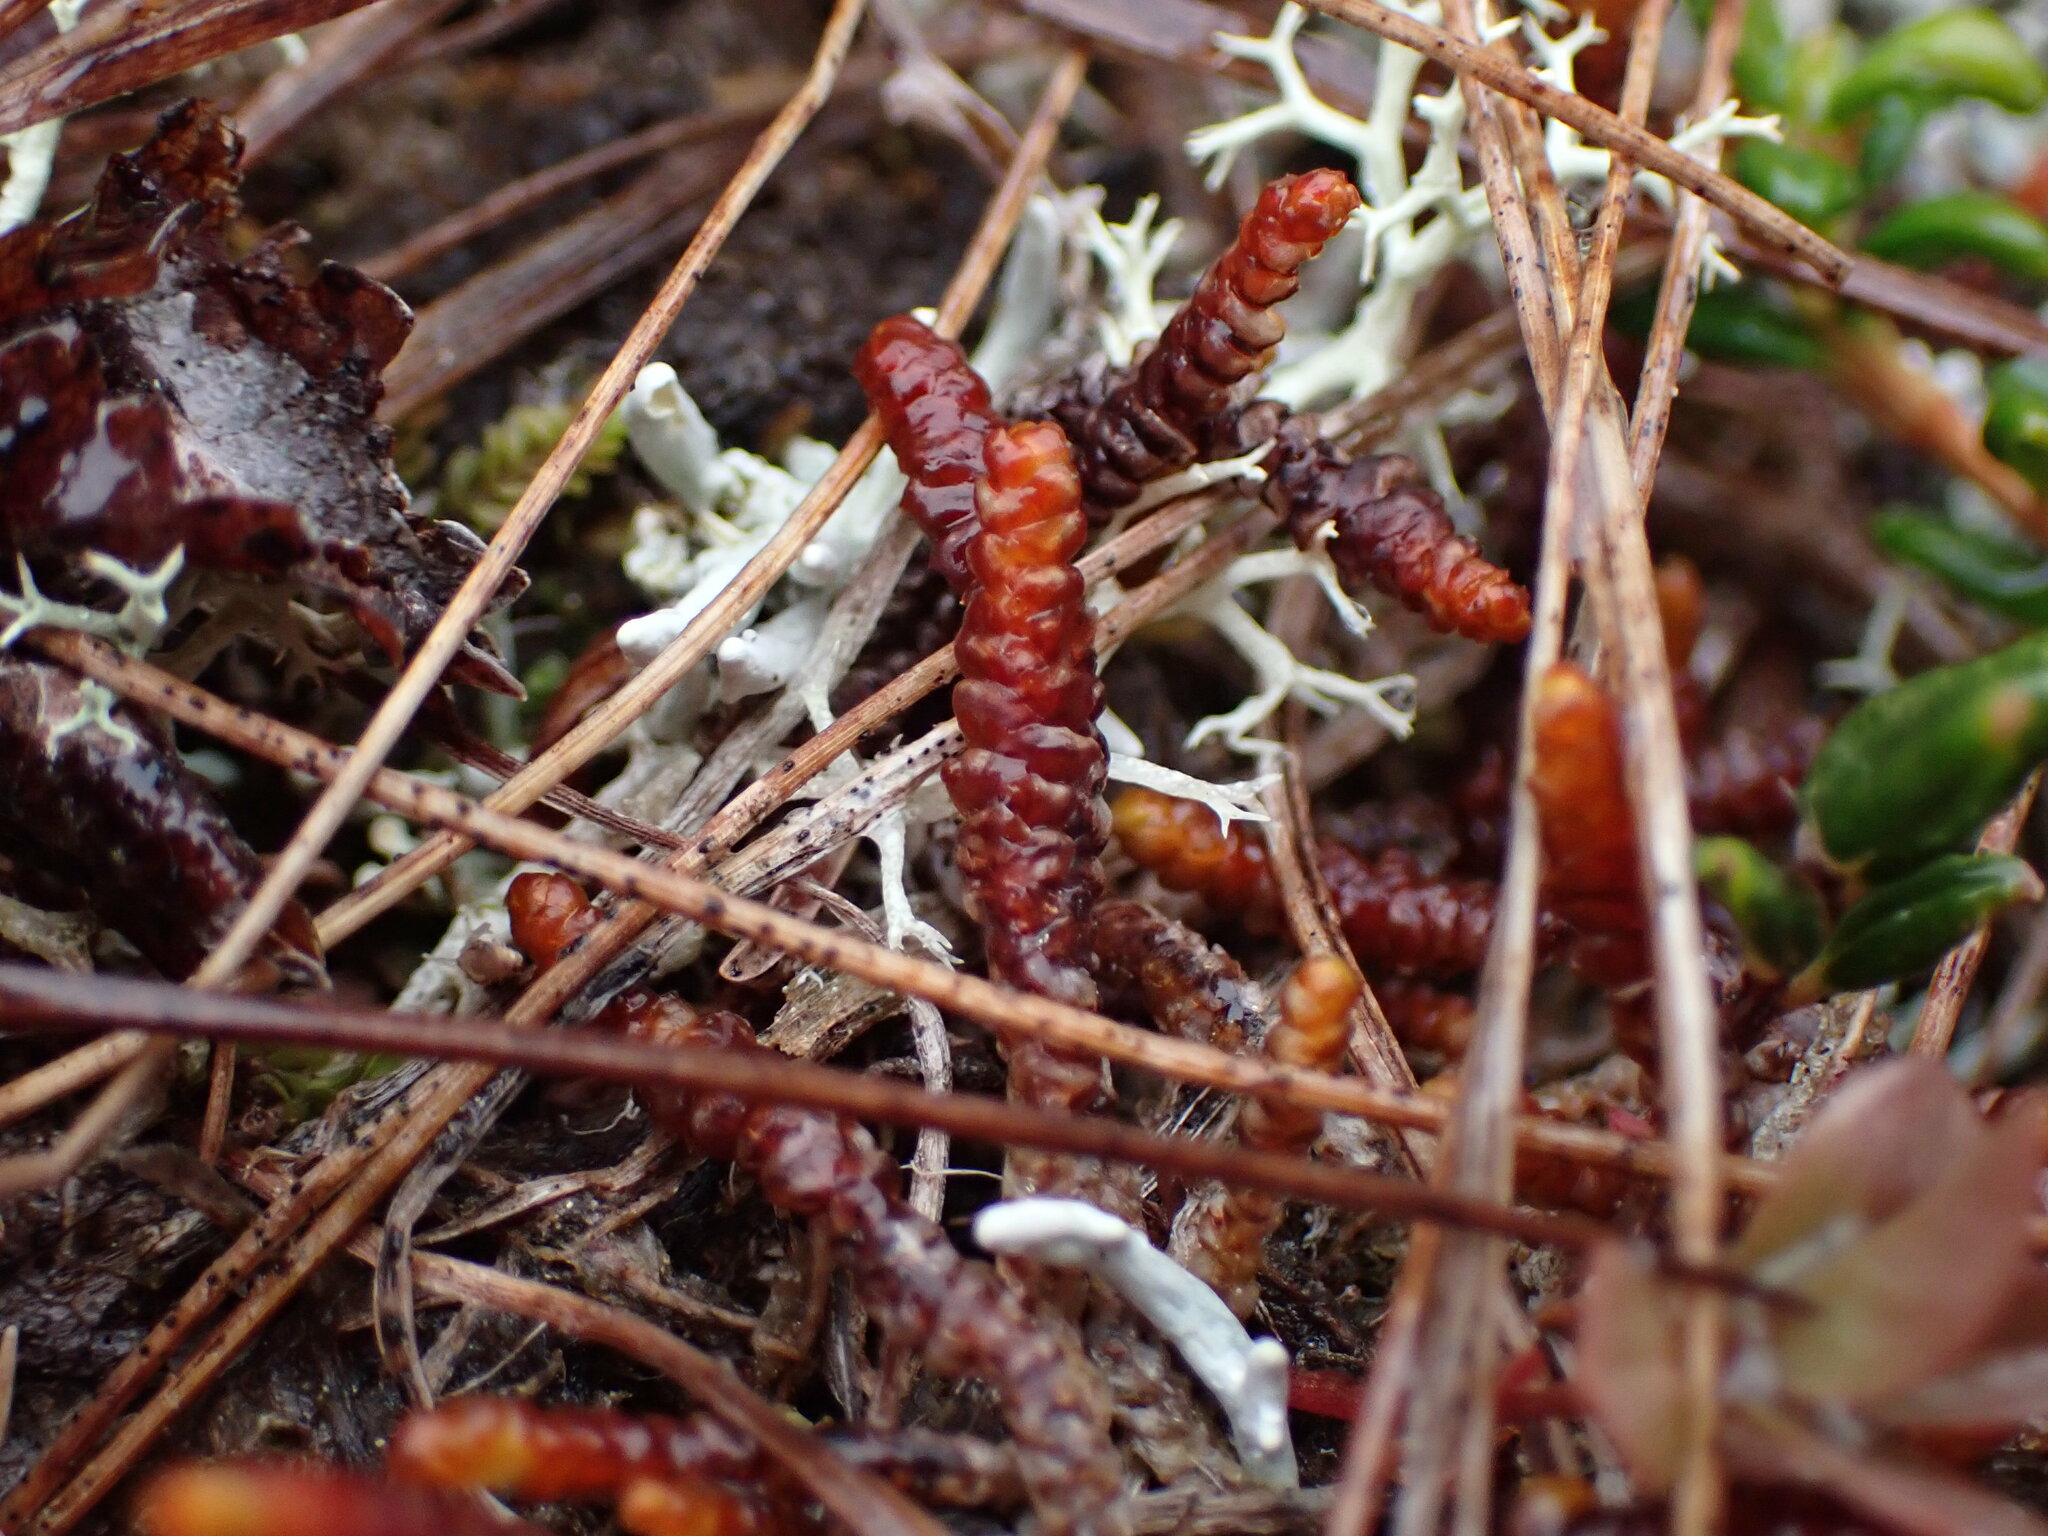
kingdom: Plantae
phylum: Marchantiophyta
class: Jungermanniopsida
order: Pleuroziales
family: Pleuroziaceae
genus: Pleurozia
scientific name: Pleurozia purpurea
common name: Purple spoonwort
